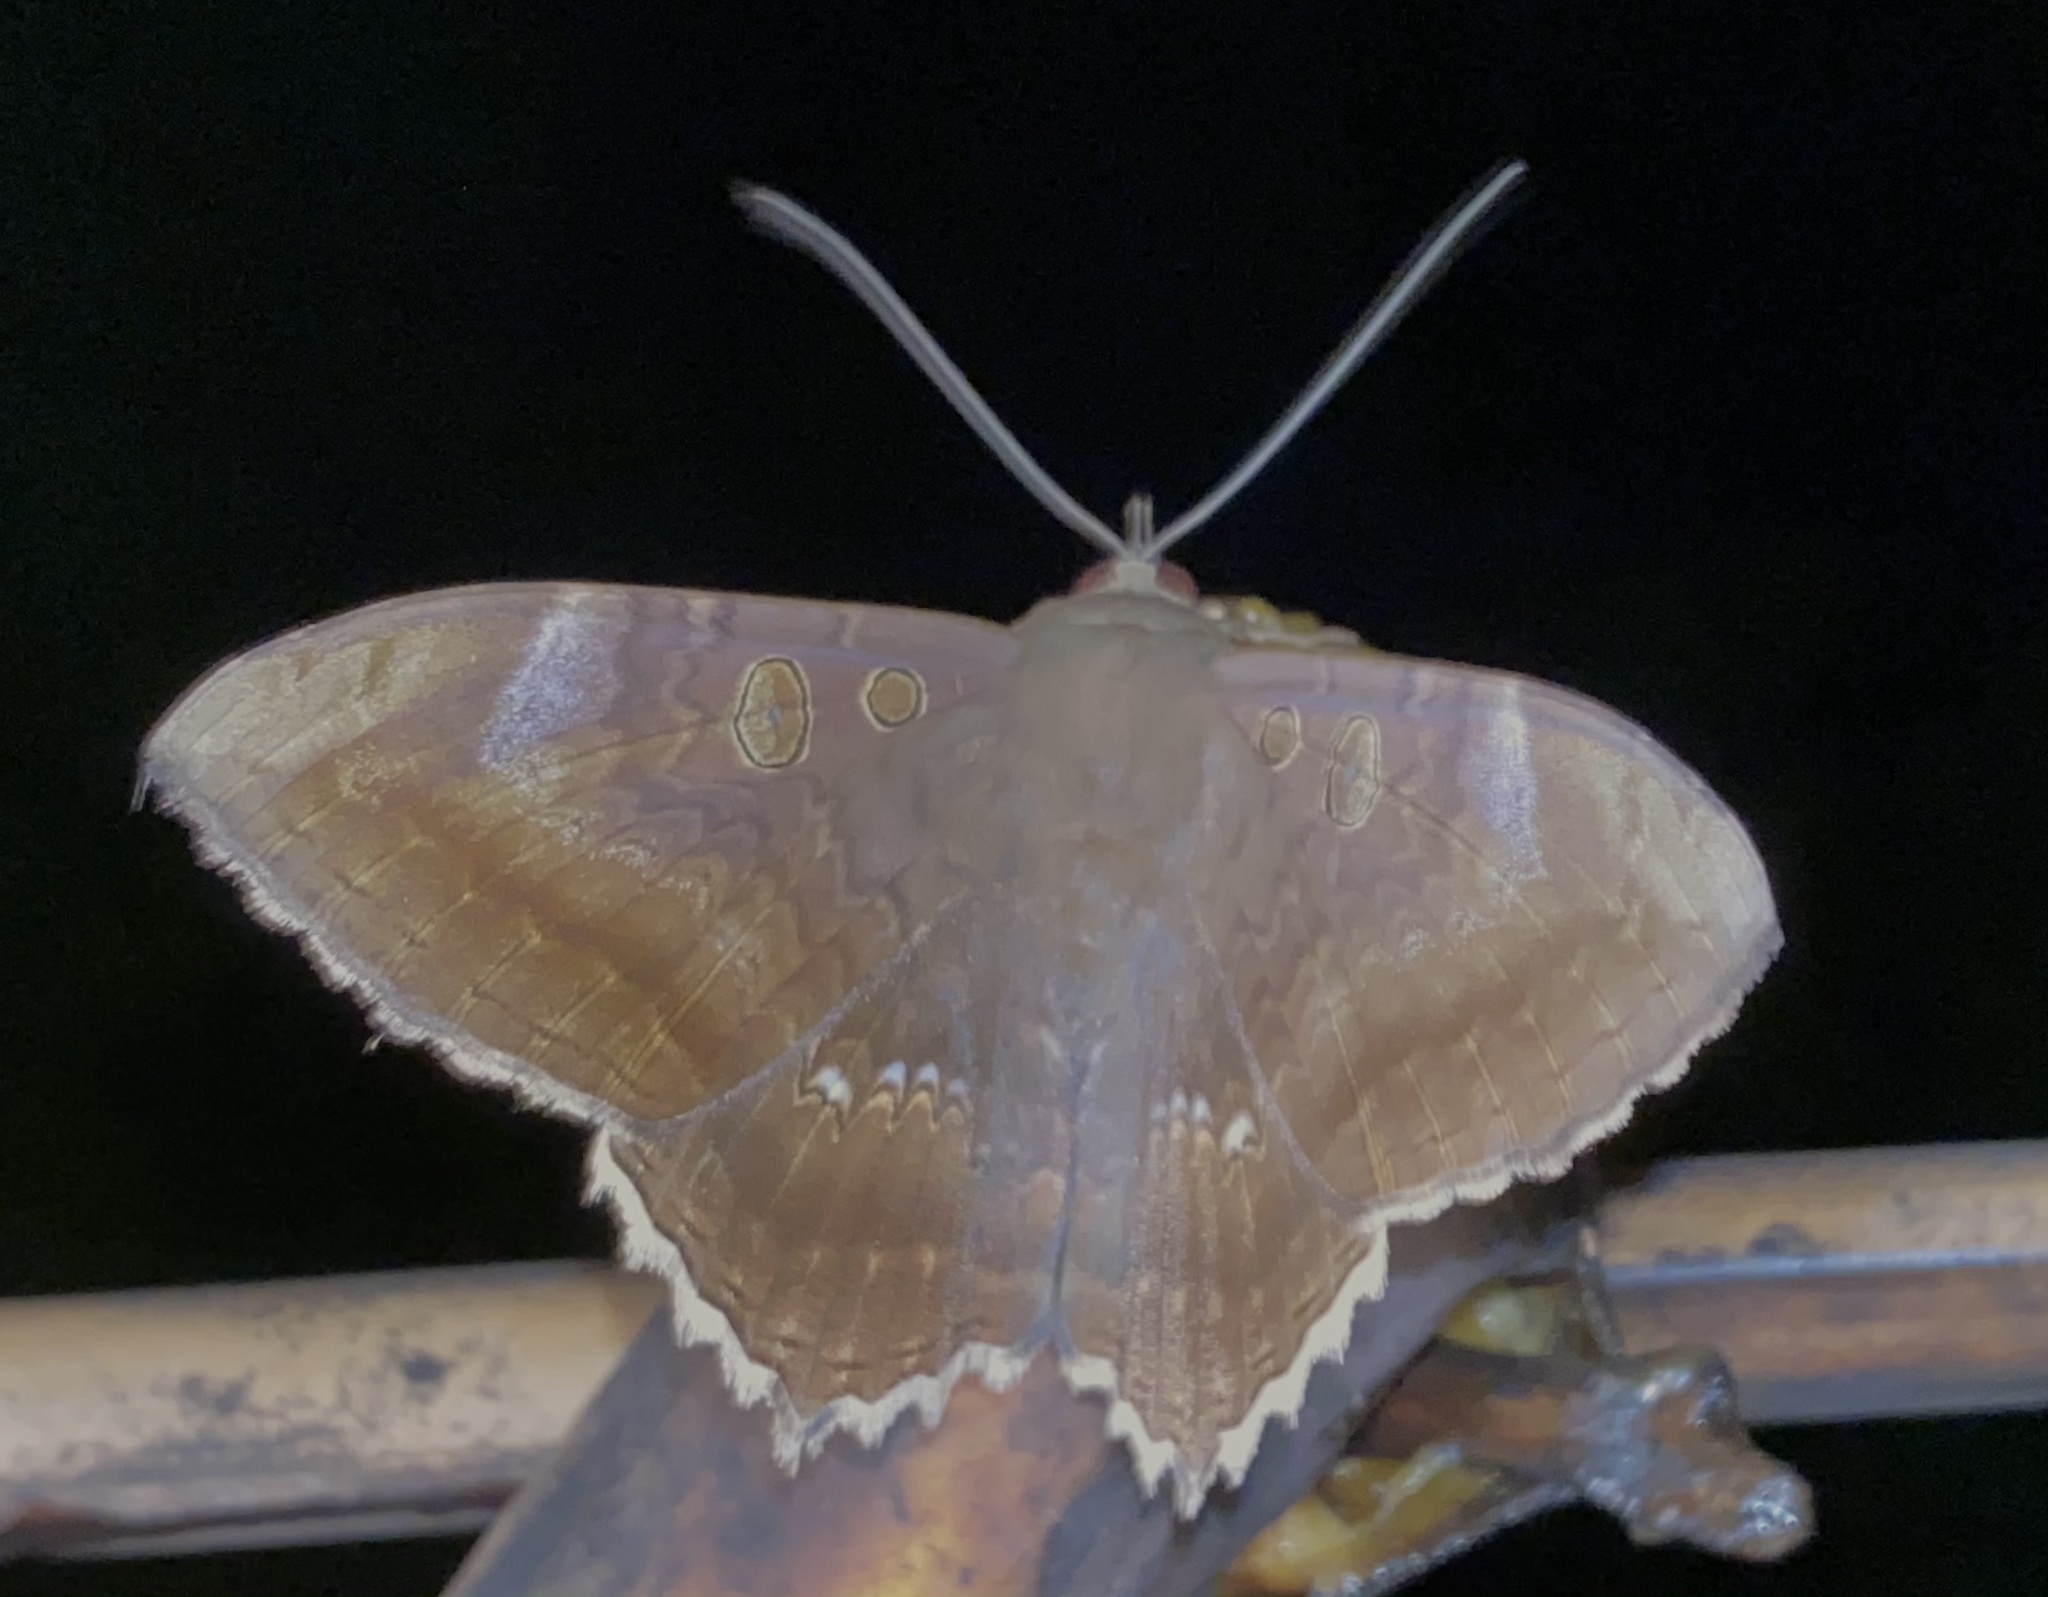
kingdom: Animalia
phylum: Arthropoda
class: Insecta
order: Lepidoptera
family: Erebidae
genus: Cyclopis
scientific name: Cyclopis caecutiens
